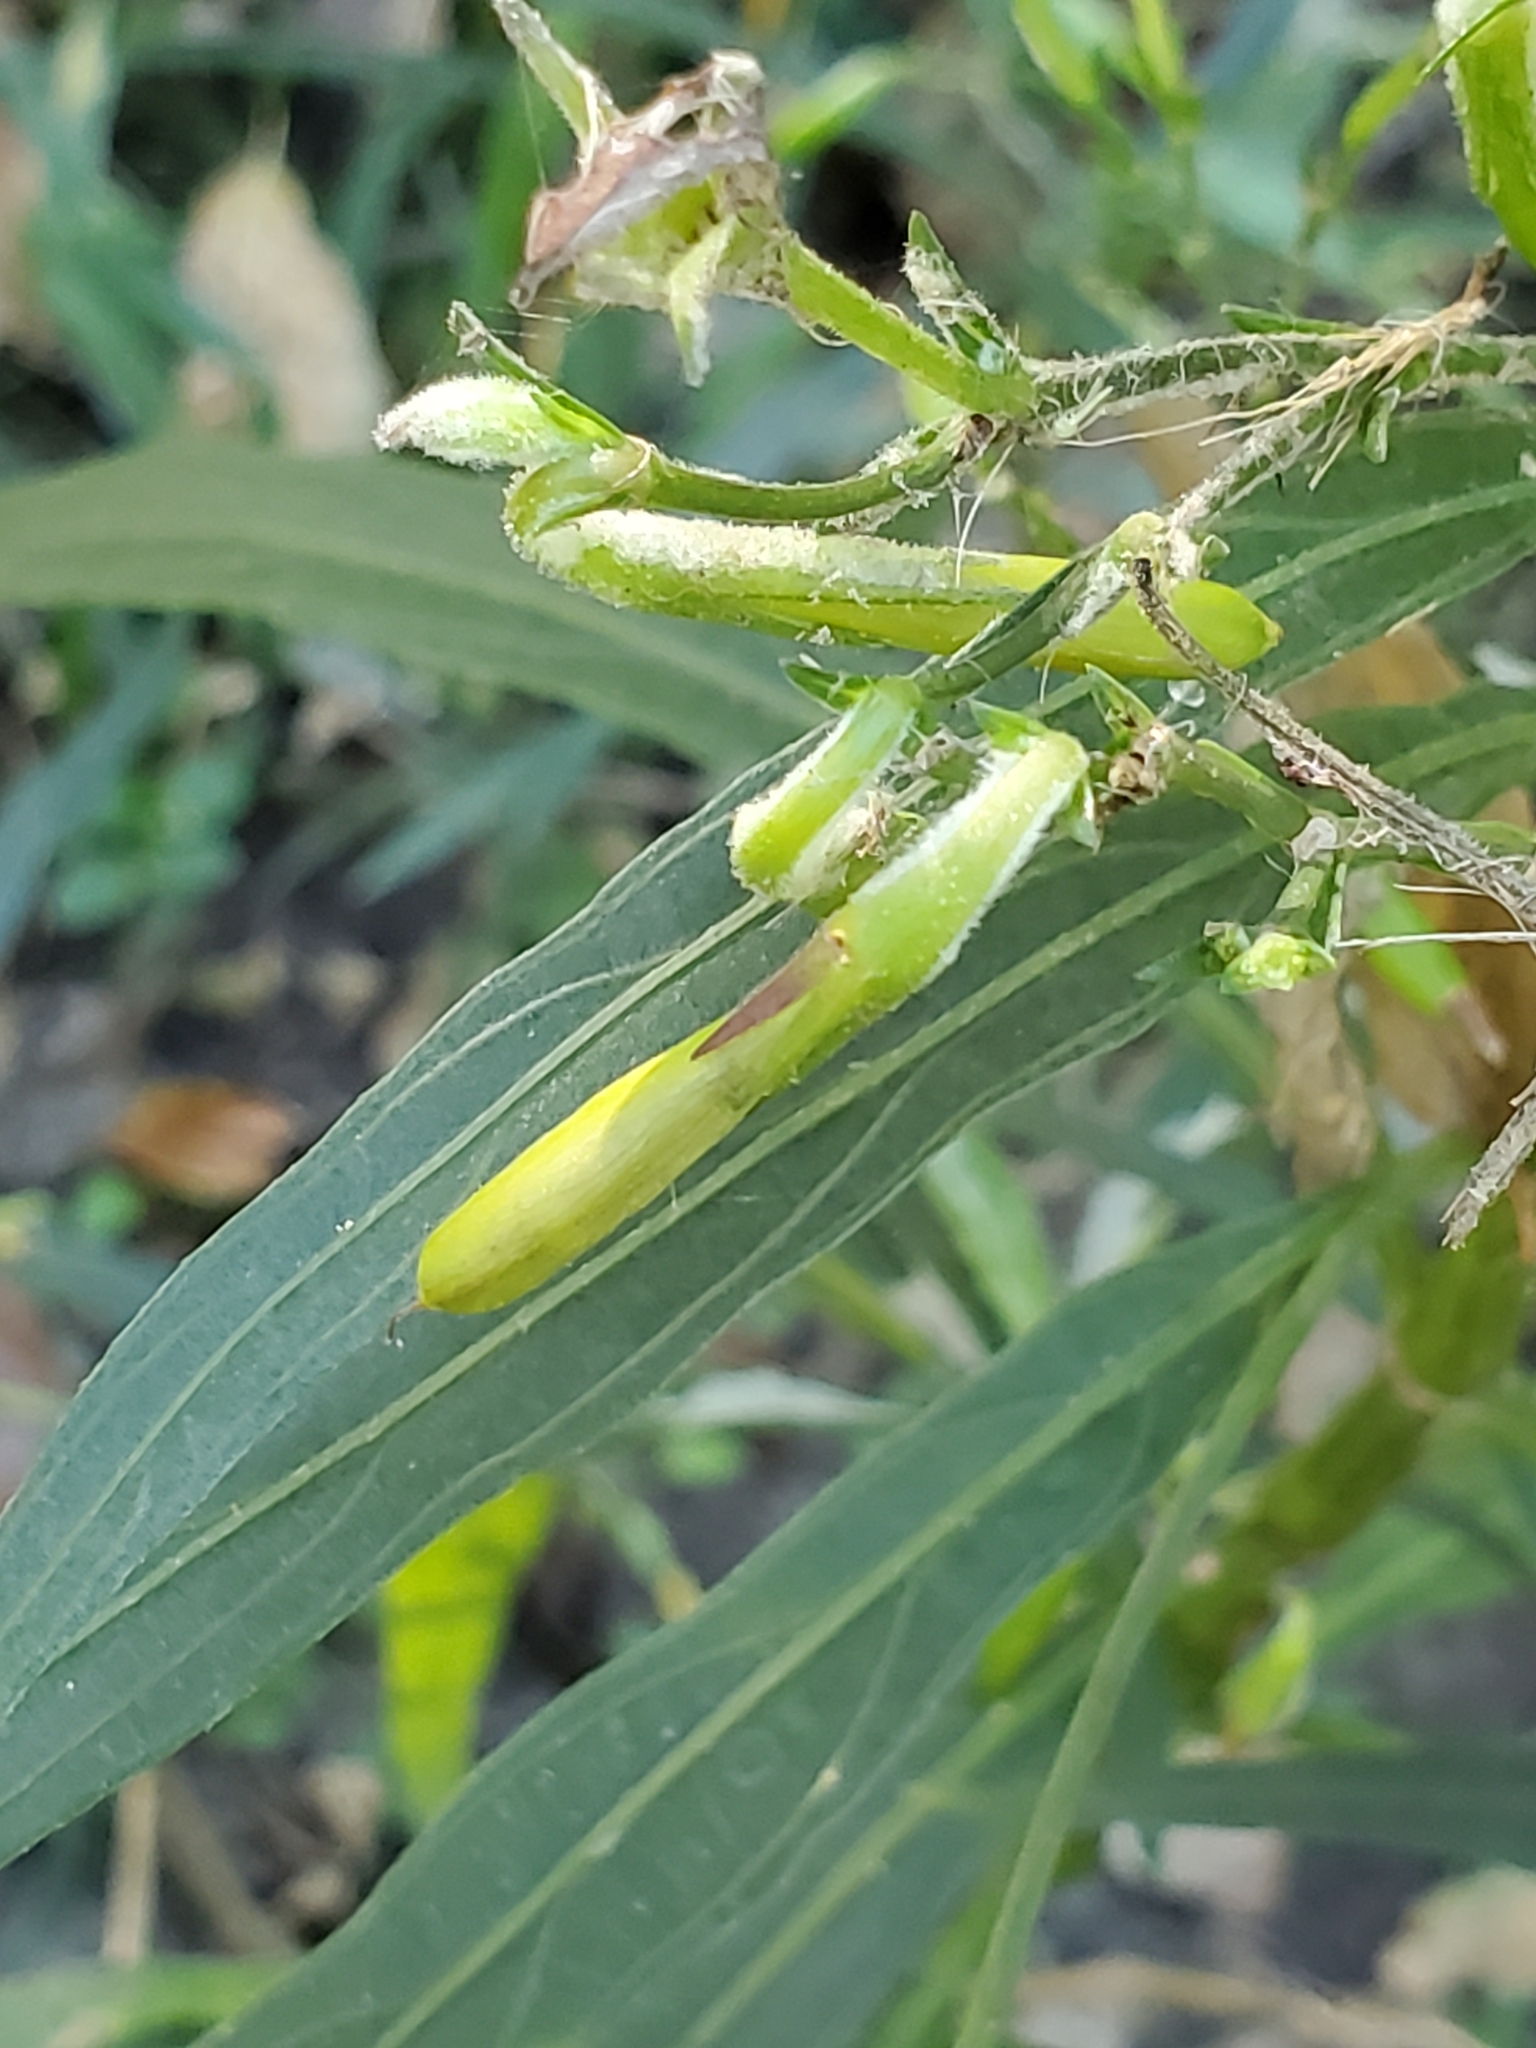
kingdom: Plantae
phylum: Tracheophyta
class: Magnoliopsida
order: Lamiales
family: Acanthaceae
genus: Ruellia
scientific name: Ruellia simplex
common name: Softseed wild petunia
